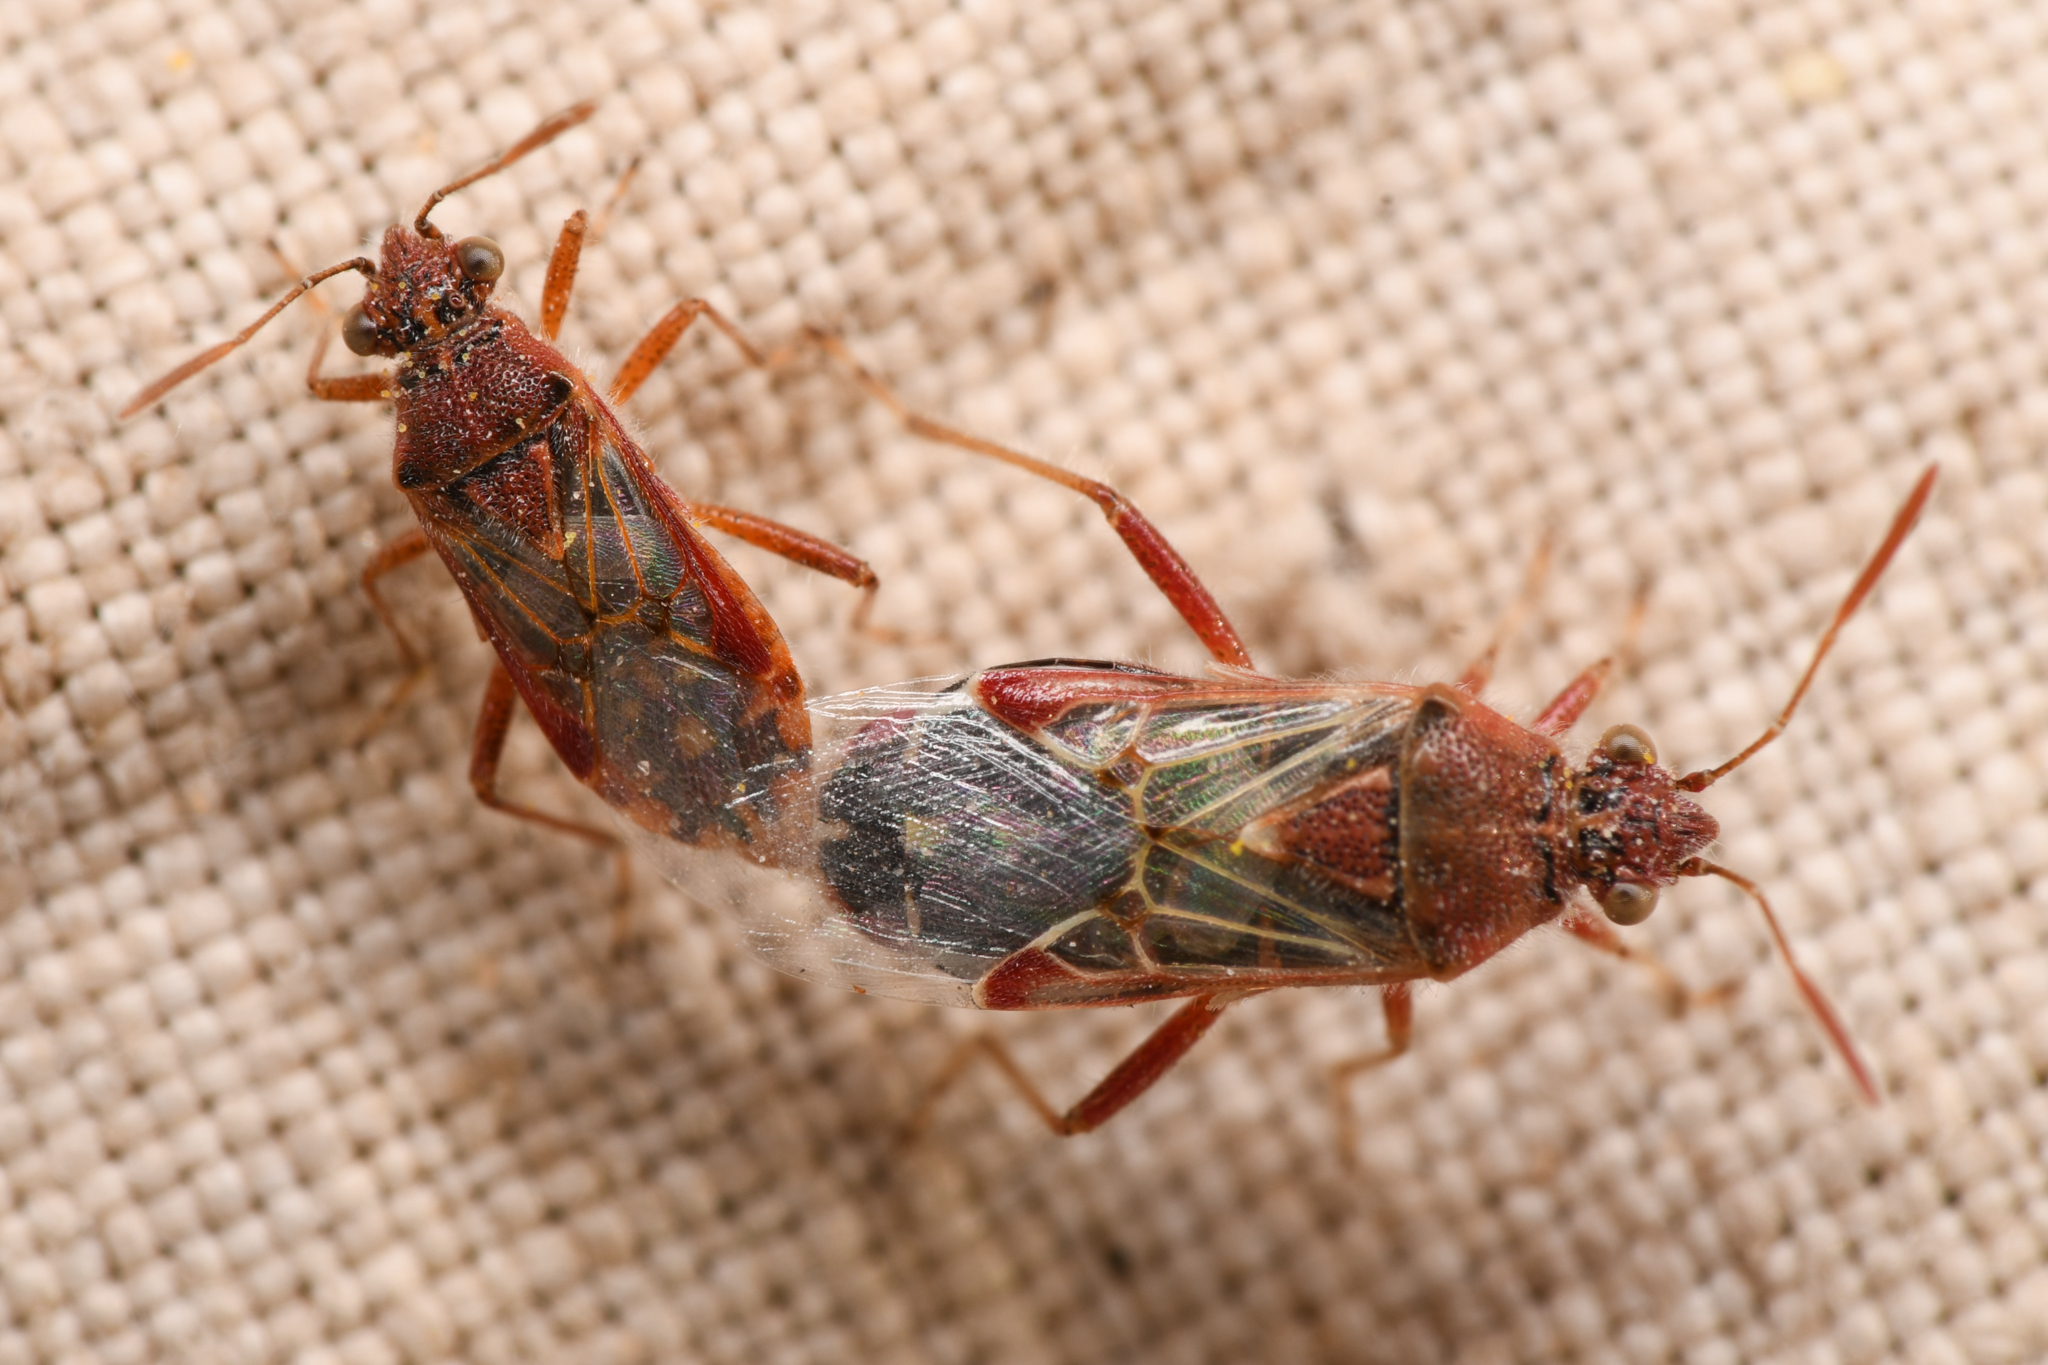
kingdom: Animalia
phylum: Arthropoda
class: Insecta
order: Hemiptera
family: Rhopalidae
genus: Liorhyssus
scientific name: Liorhyssus hyalinus
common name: Scentless plant bug
